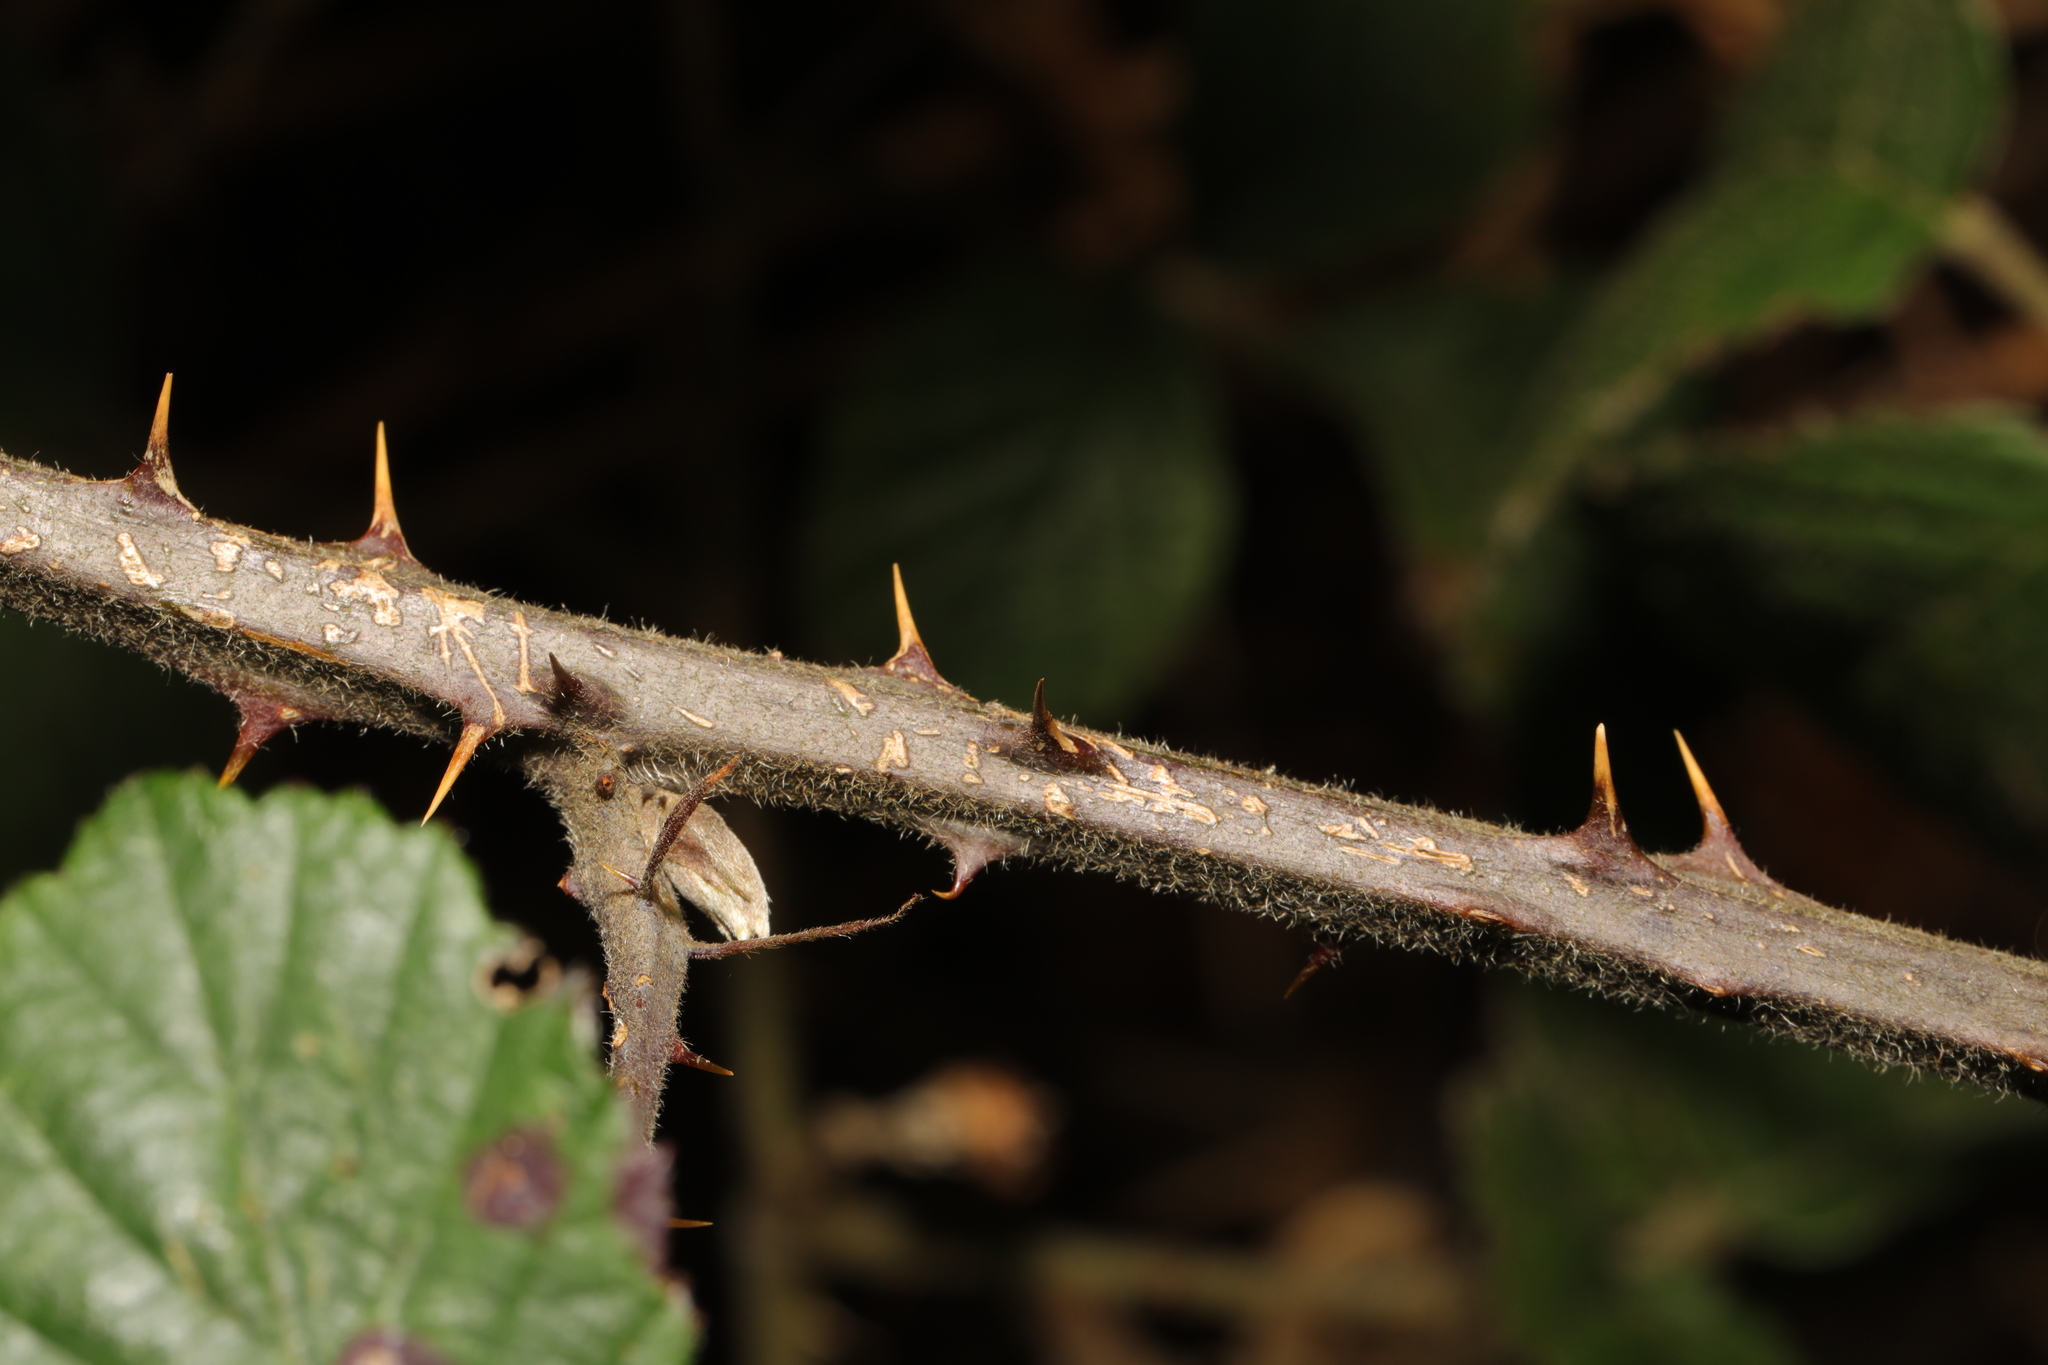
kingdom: Plantae
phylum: Tracheophyta
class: Magnoliopsida
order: Rosales
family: Rosaceae
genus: Rubus
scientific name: Rubus vestitus
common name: European blackberry
